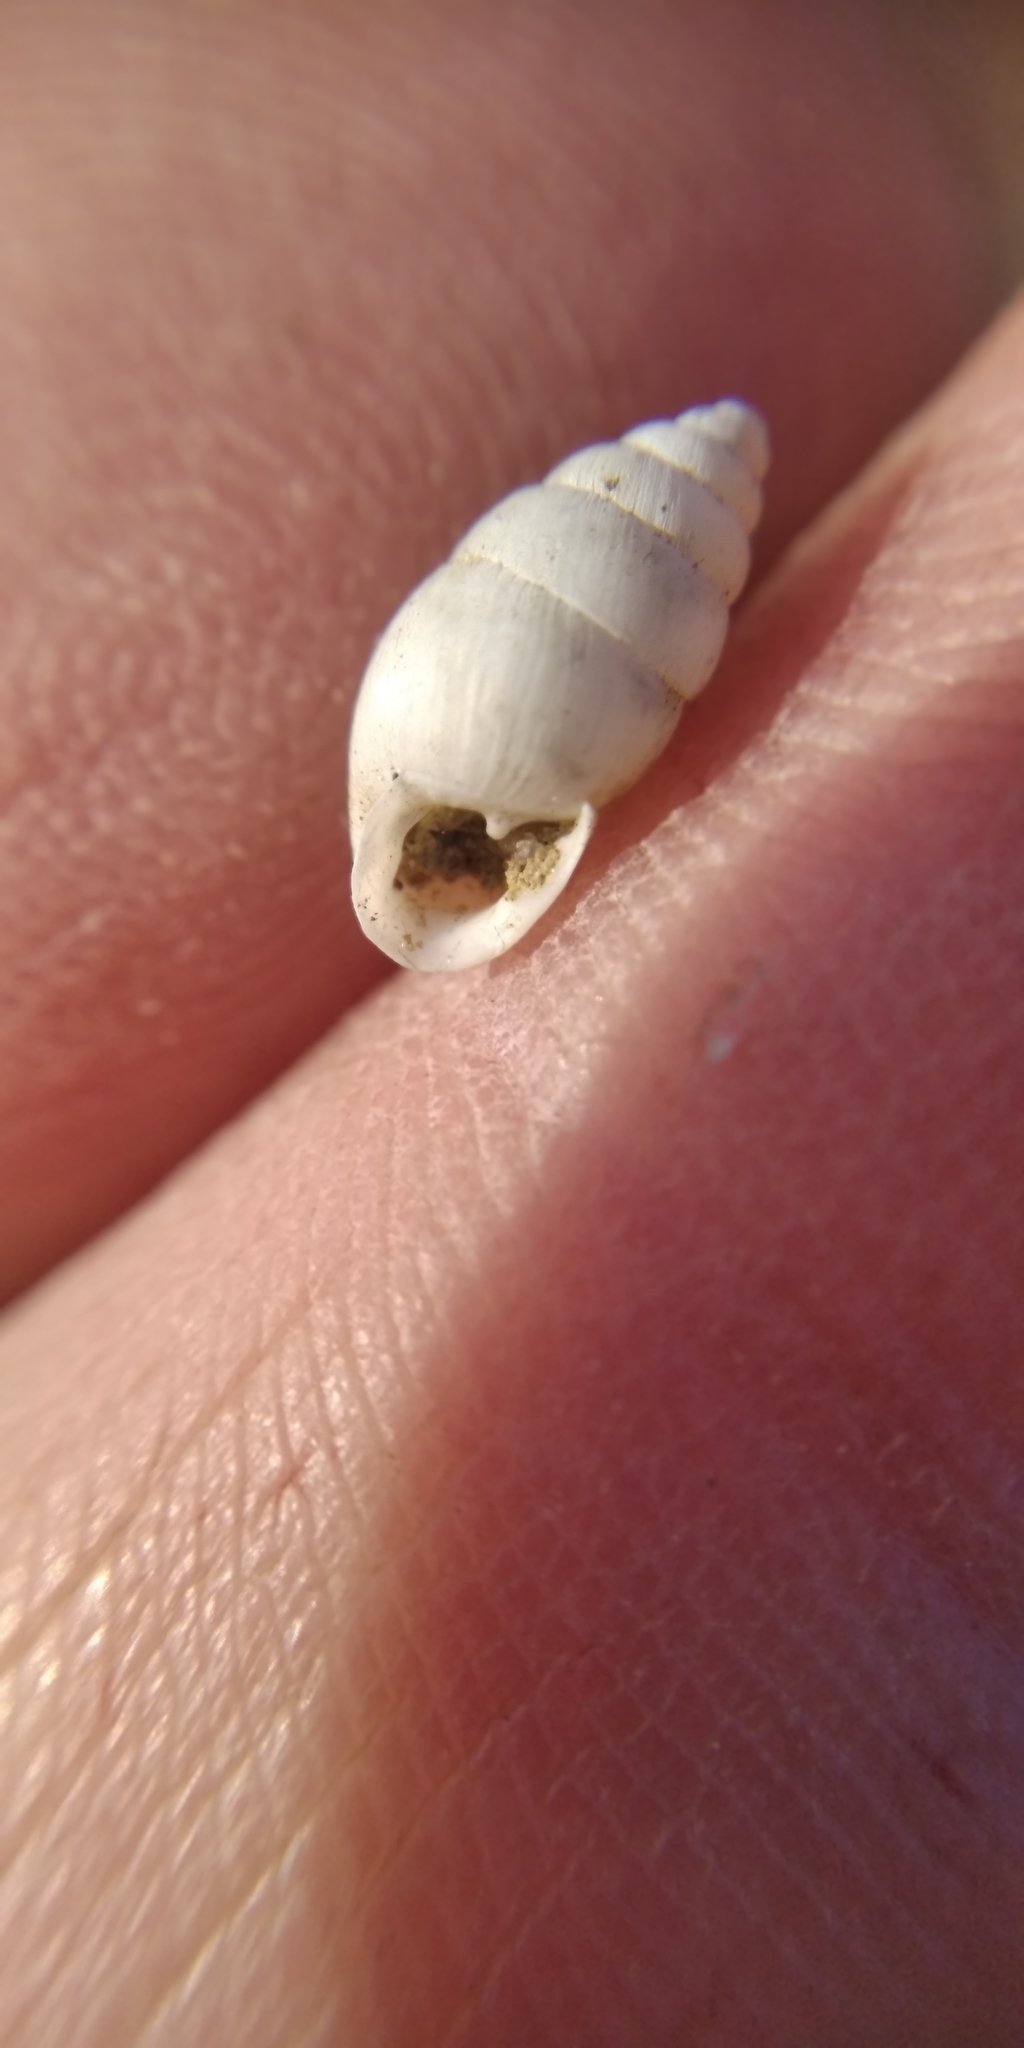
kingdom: Animalia
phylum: Mollusca
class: Gastropoda
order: Stylommatophora
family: Enidae
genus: Chondrula
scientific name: Chondrula tridens
